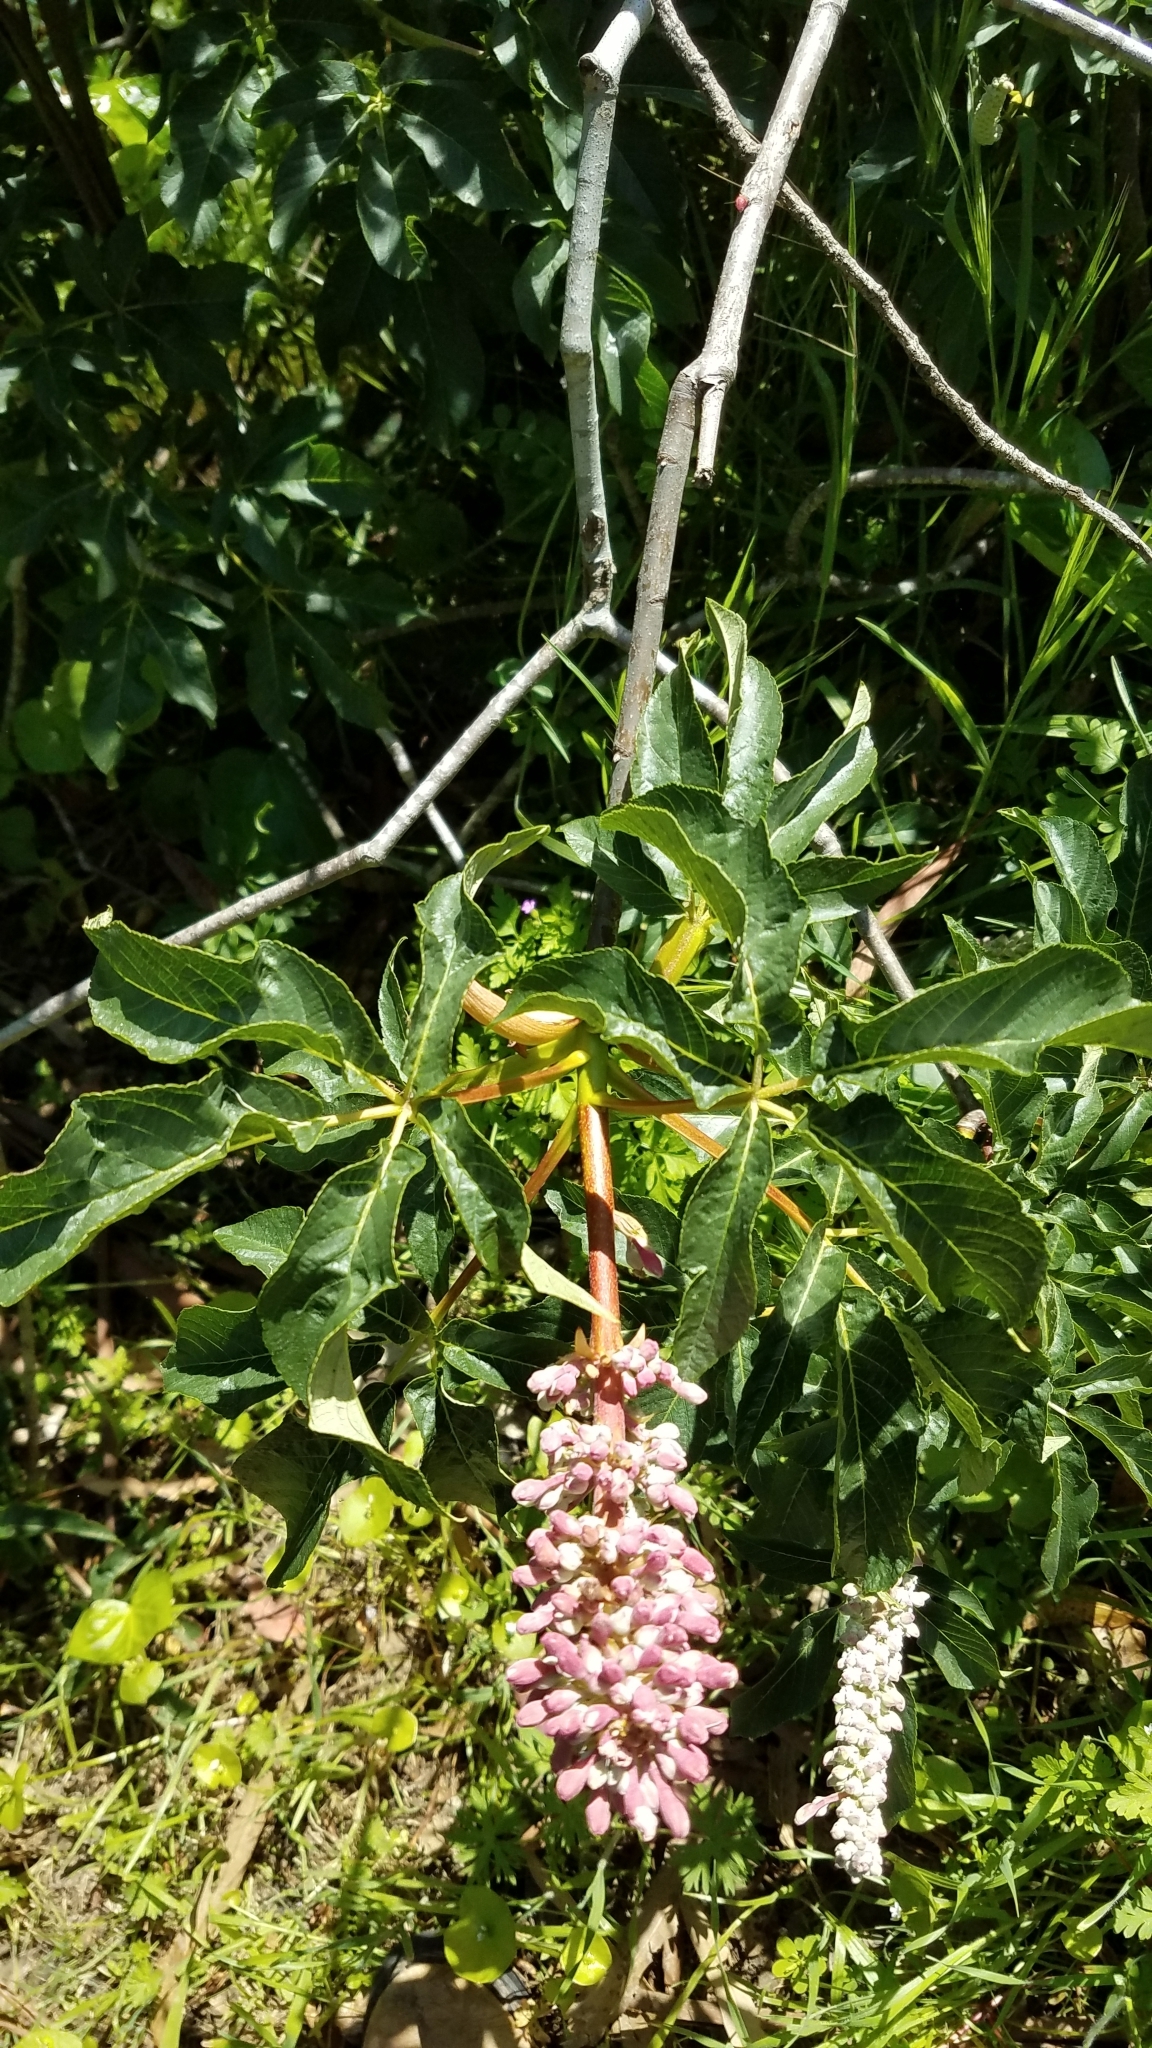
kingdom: Plantae
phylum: Tracheophyta
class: Magnoliopsida
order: Sapindales
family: Sapindaceae
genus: Aesculus
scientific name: Aesculus californica
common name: California buckeye
